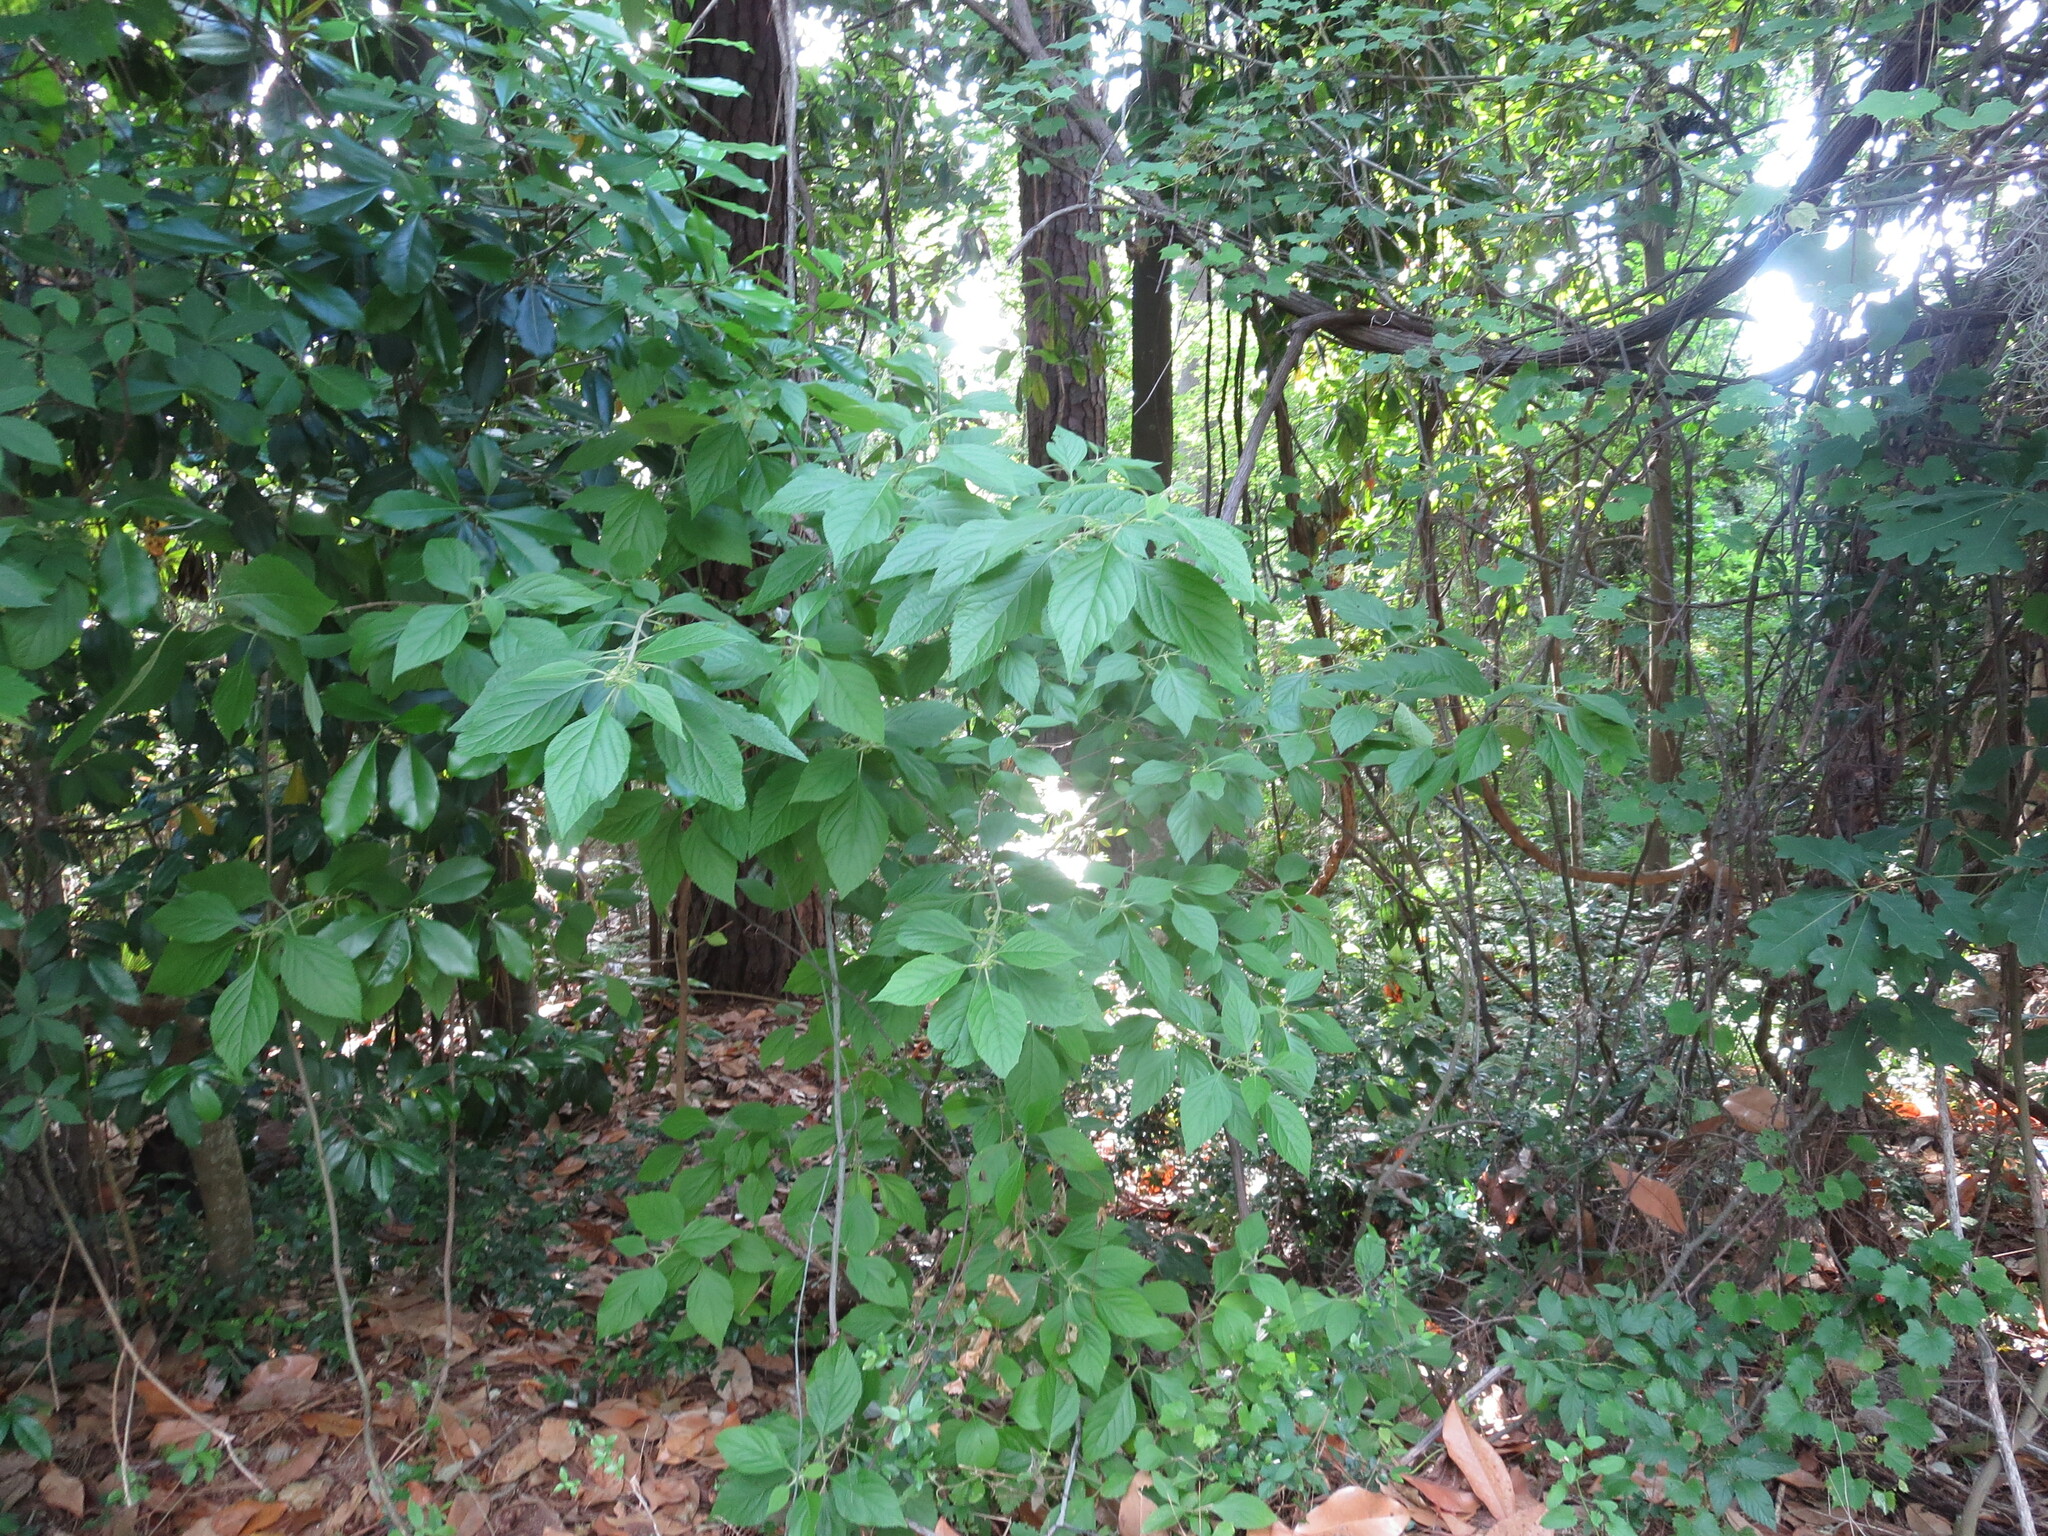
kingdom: Plantae
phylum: Tracheophyta
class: Magnoliopsida
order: Lamiales
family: Lamiaceae
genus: Callicarpa
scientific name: Callicarpa americana
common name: American beautyberry
